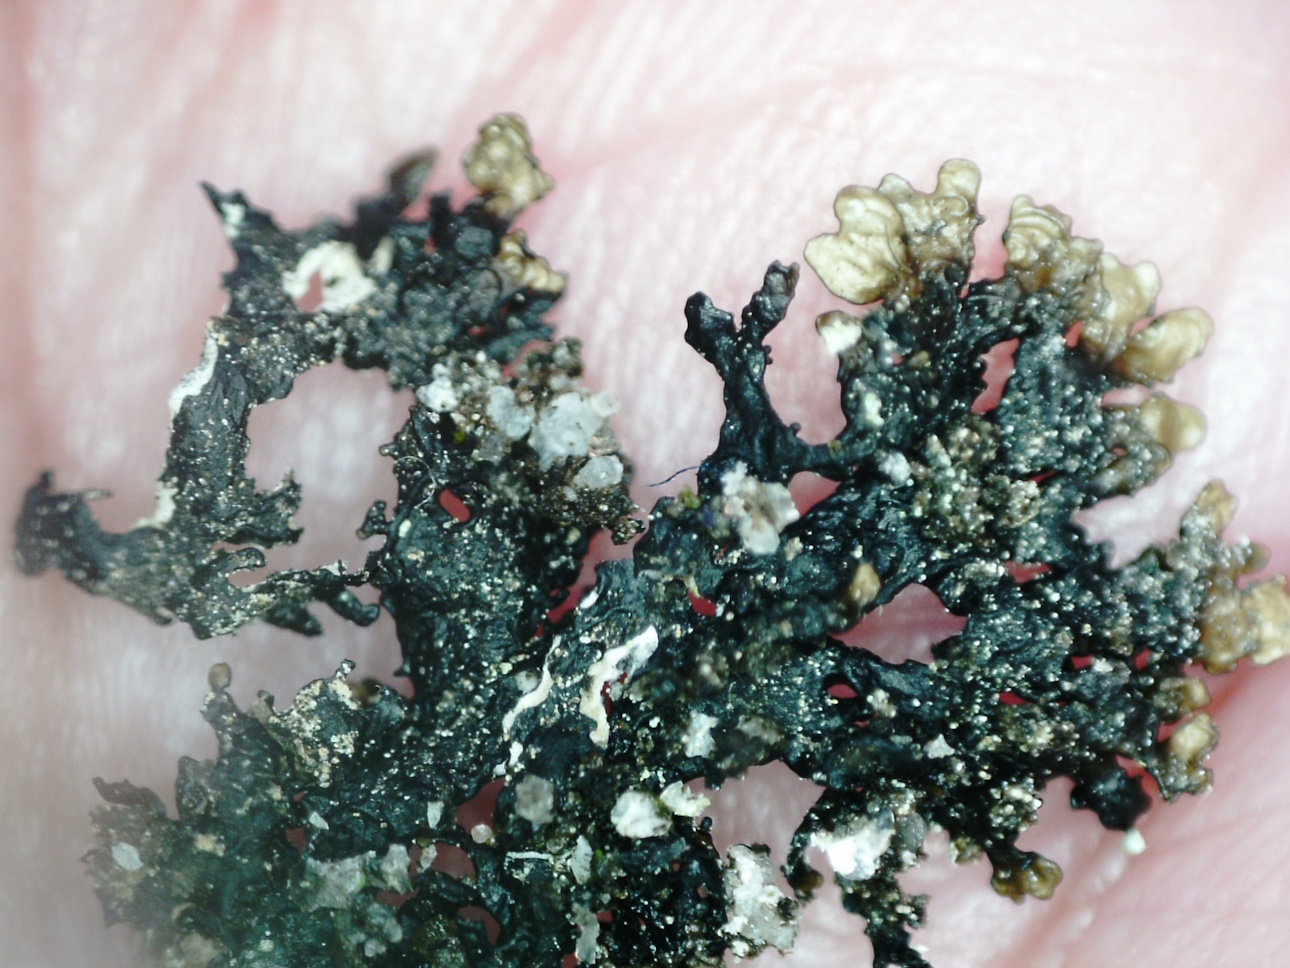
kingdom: Fungi
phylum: Ascomycota
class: Lecanoromycetes
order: Lecanorales
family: Parmeliaceae
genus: Melanelia
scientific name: Melanelia hepatizon
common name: Rimmed camouflage lichen
